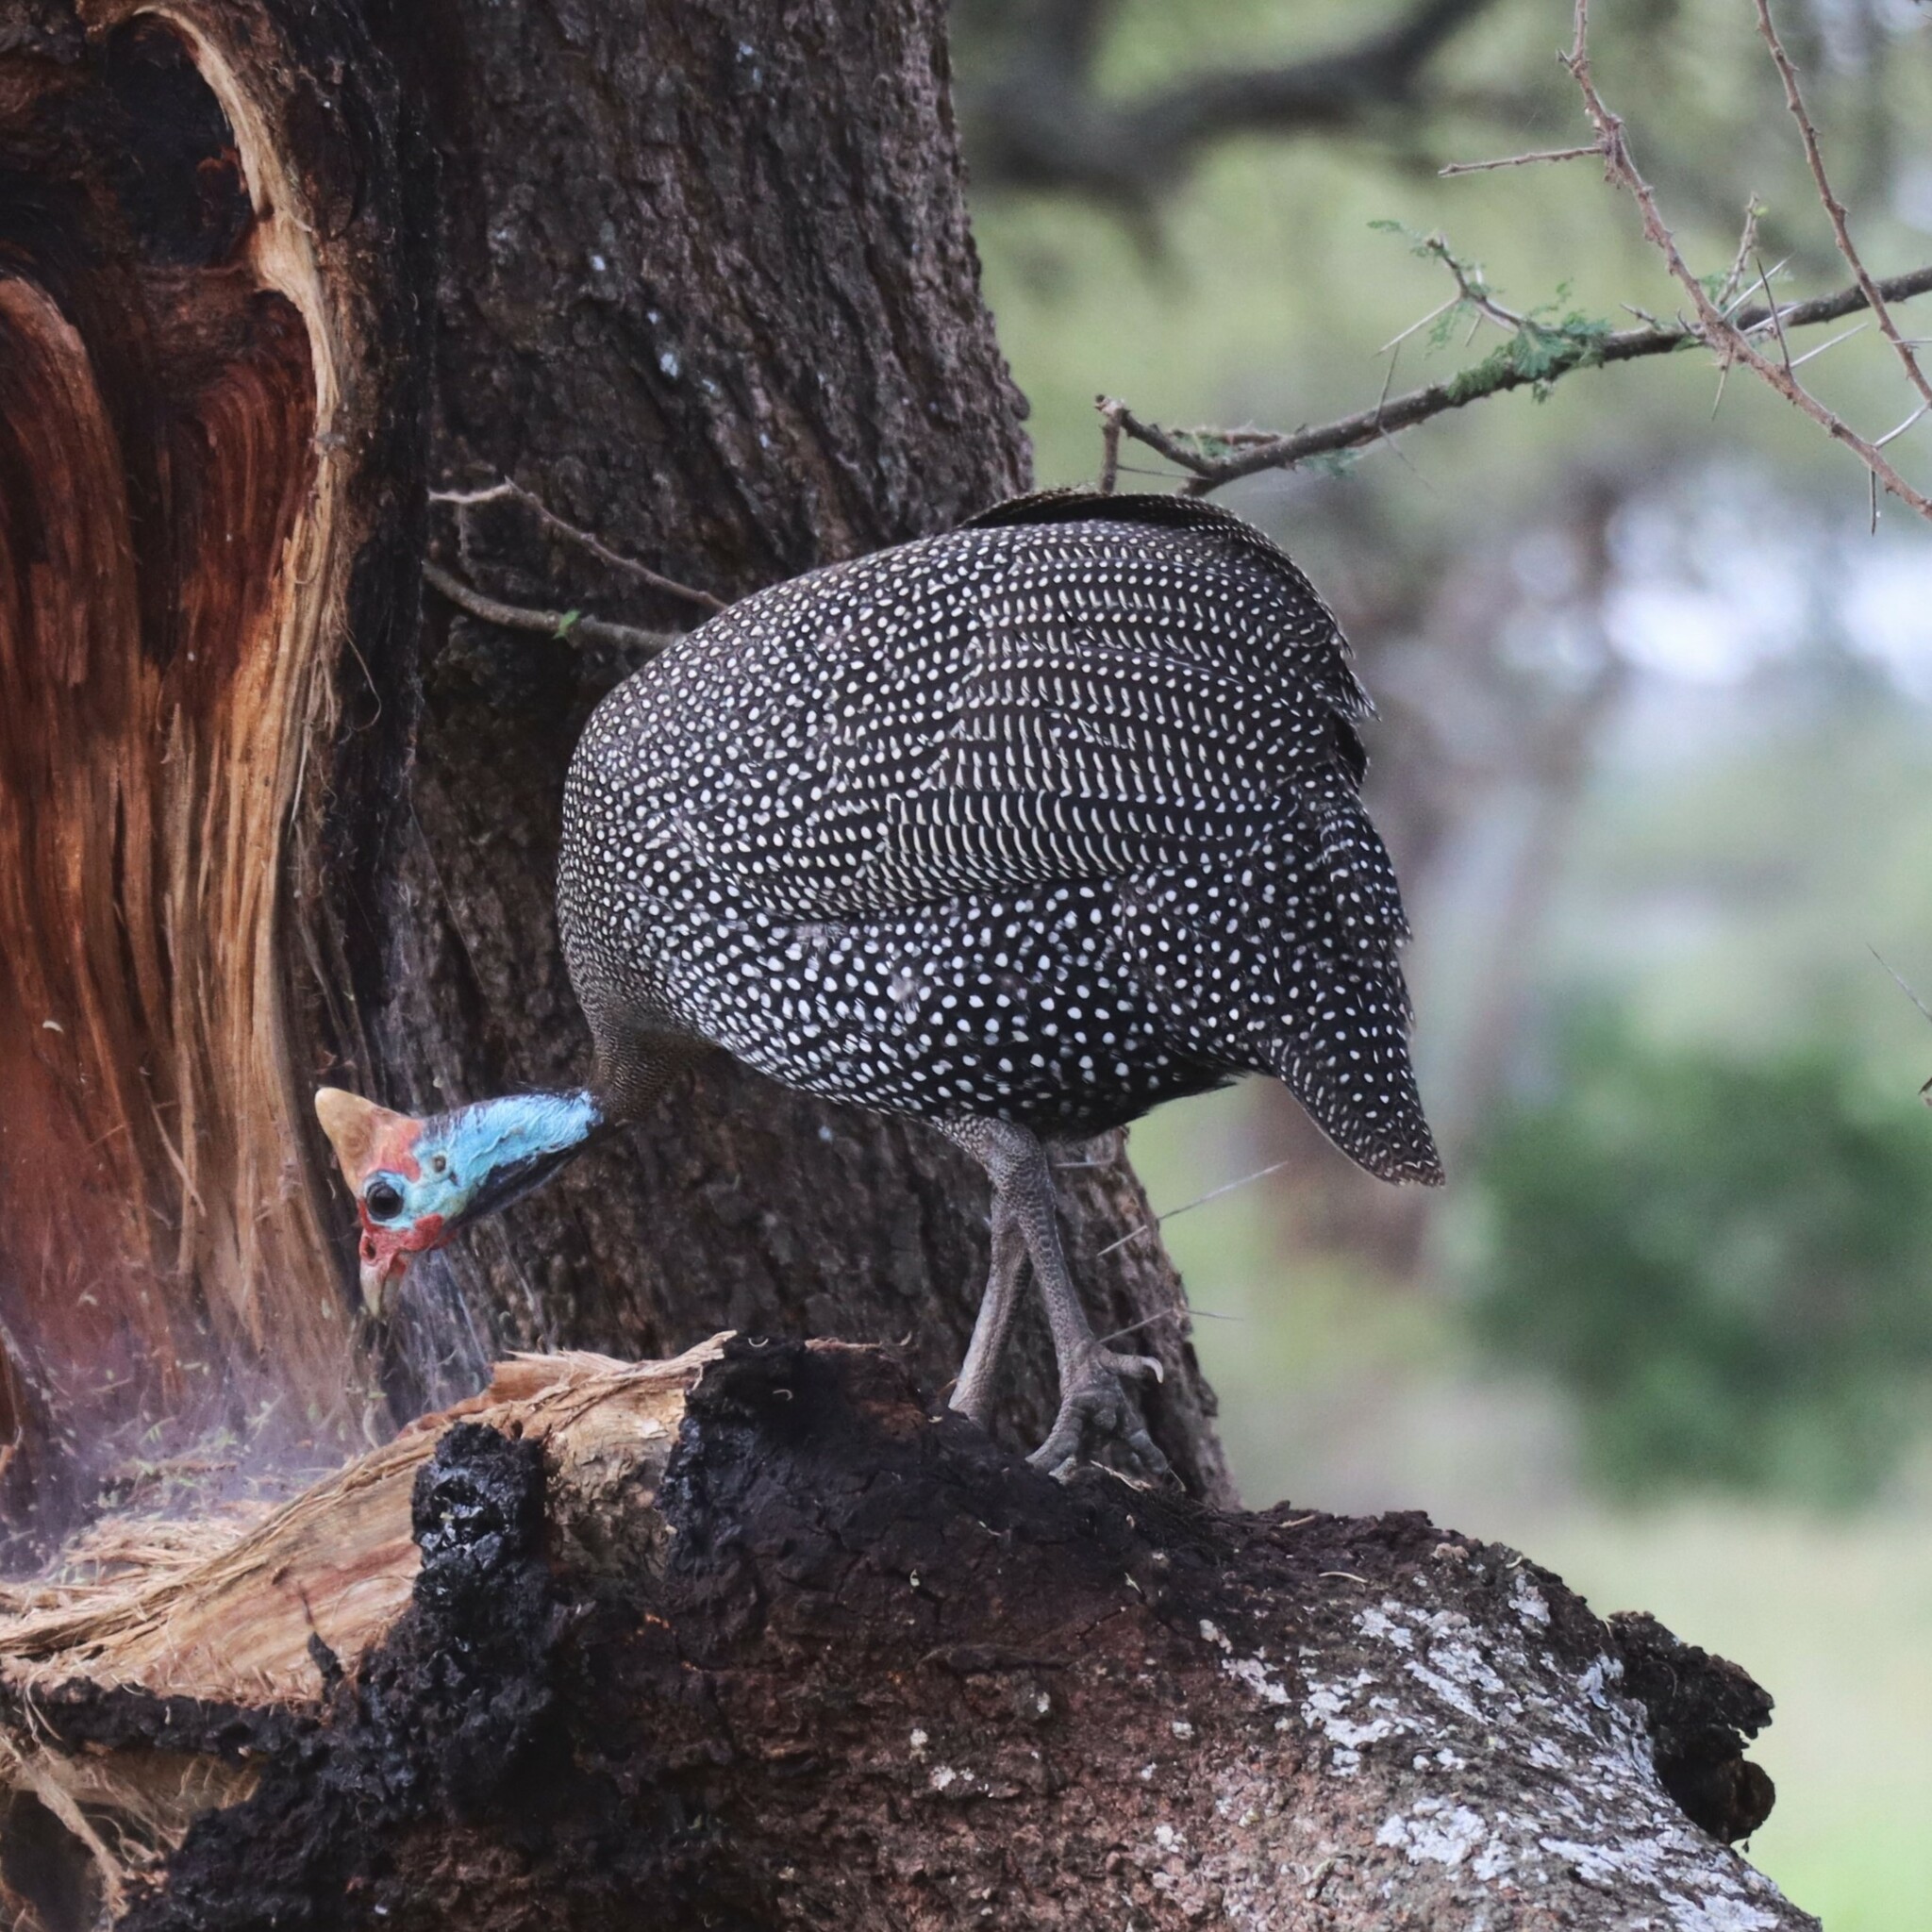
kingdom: Animalia
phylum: Chordata
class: Aves
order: Galliformes
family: Numididae
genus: Numida
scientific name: Numida meleagris
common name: Helmeted guineafowl
